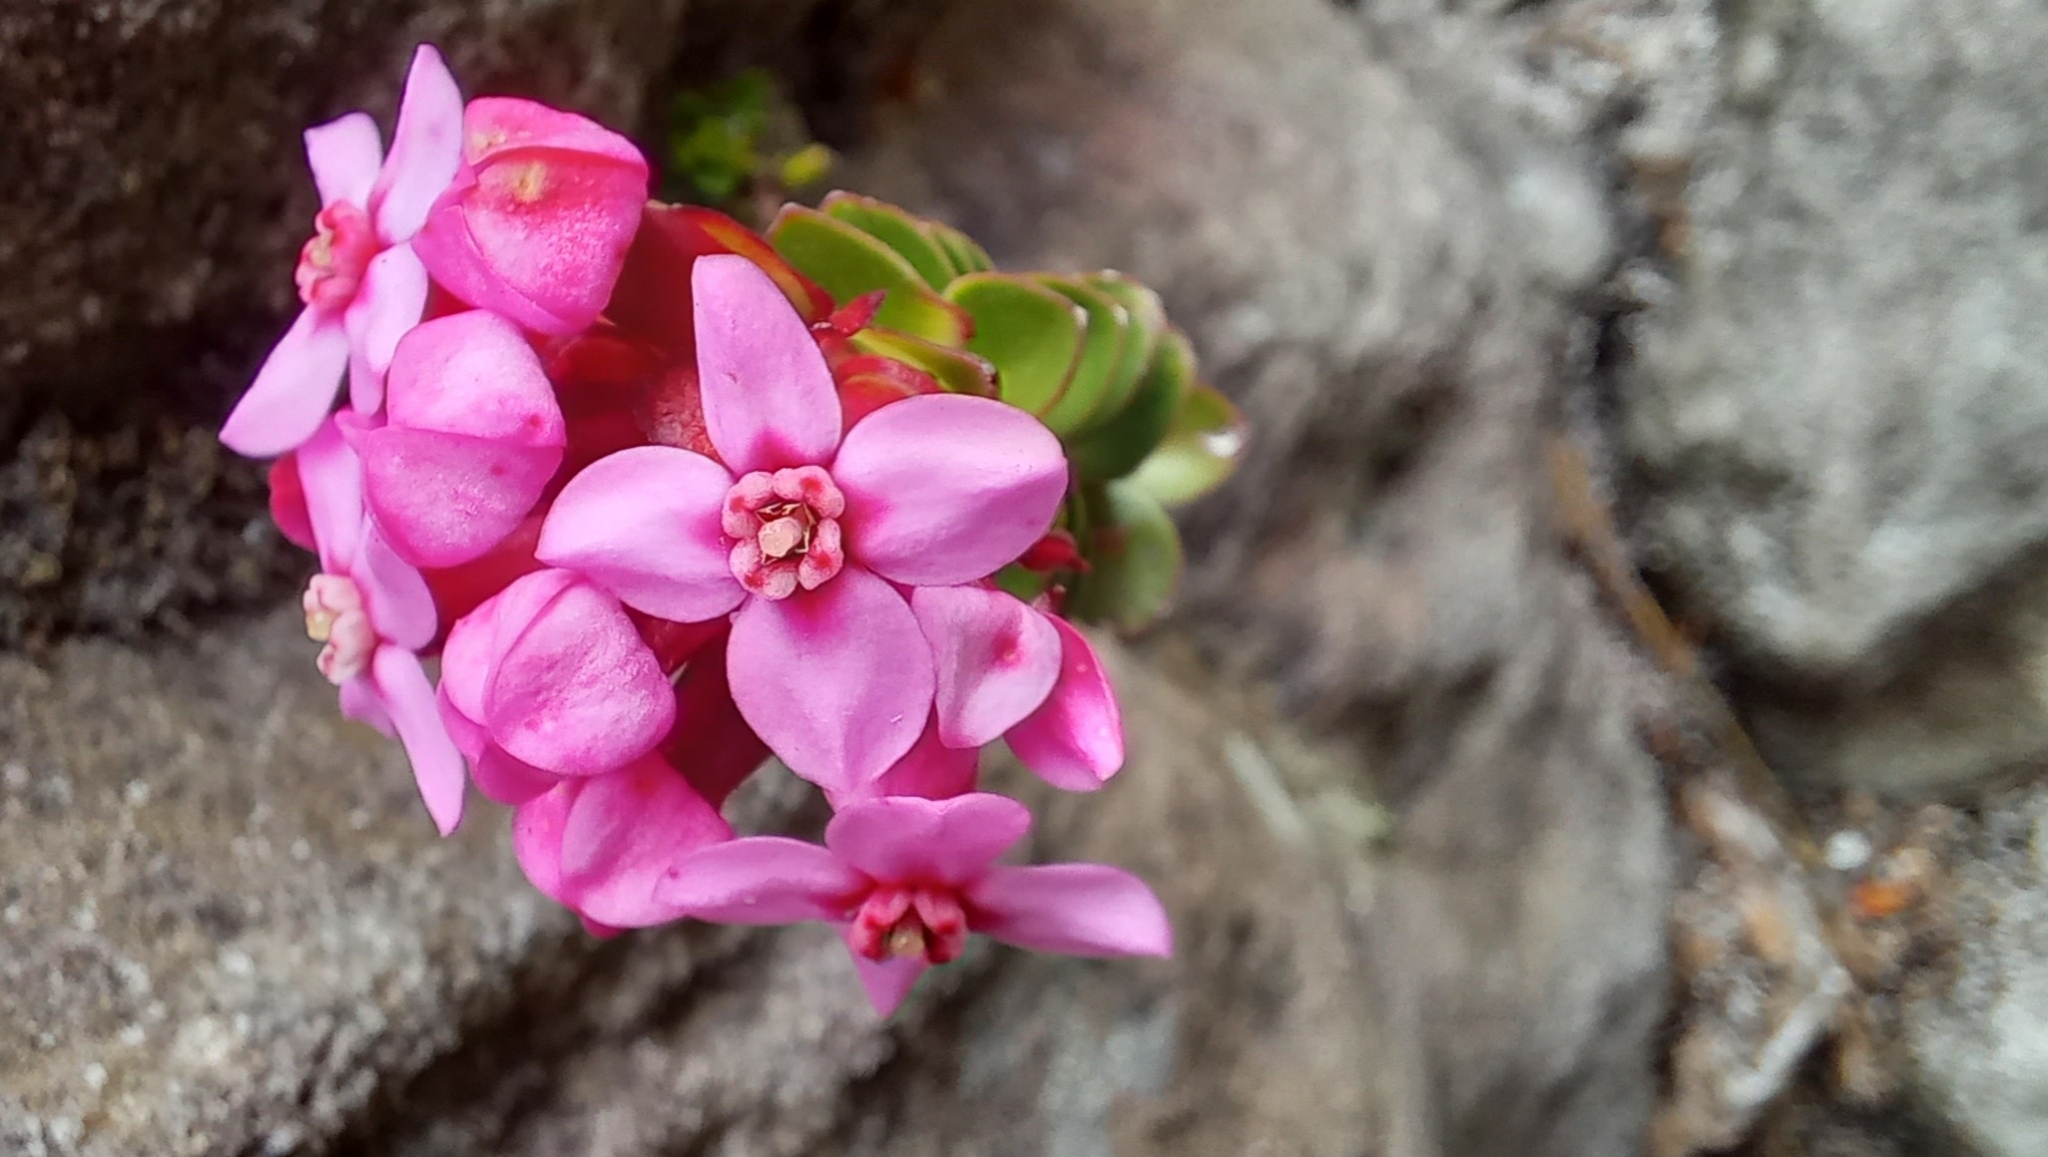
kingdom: Plantae
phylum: Tracheophyta
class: Magnoliopsida
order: Myrtales
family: Penaeaceae
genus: Sonderothamnus
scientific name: Sonderothamnus petraeus
